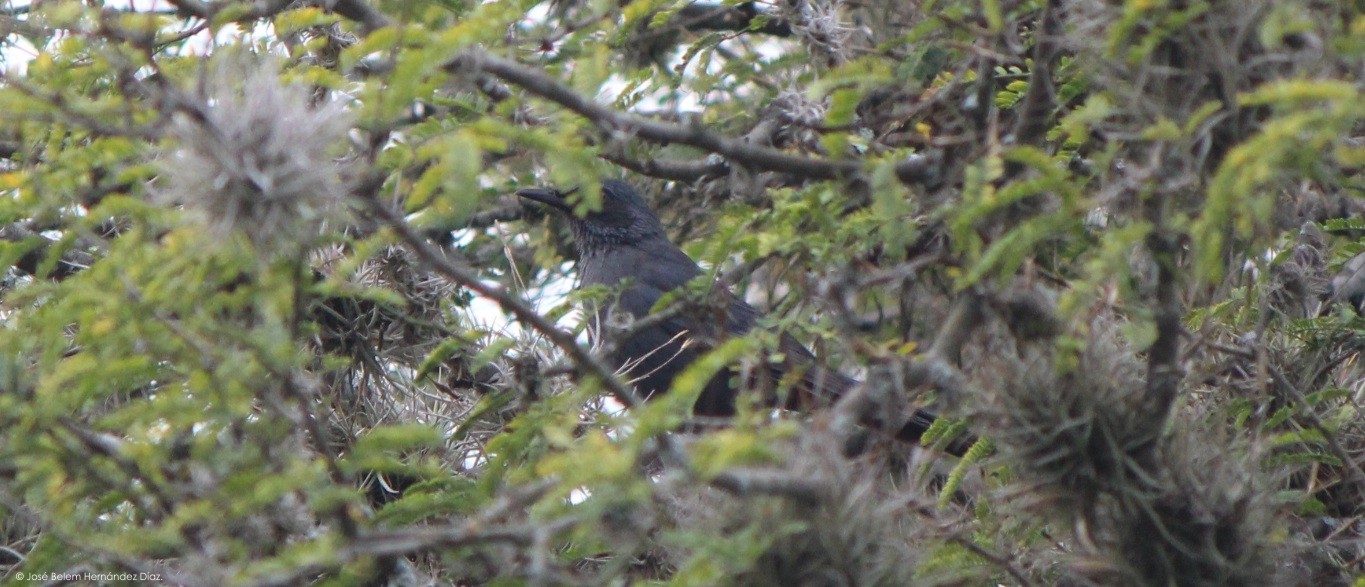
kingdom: Animalia
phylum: Chordata
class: Aves
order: Passeriformes
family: Mimidae
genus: Melanotis
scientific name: Melanotis caerulescens
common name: Blue mockingbird
